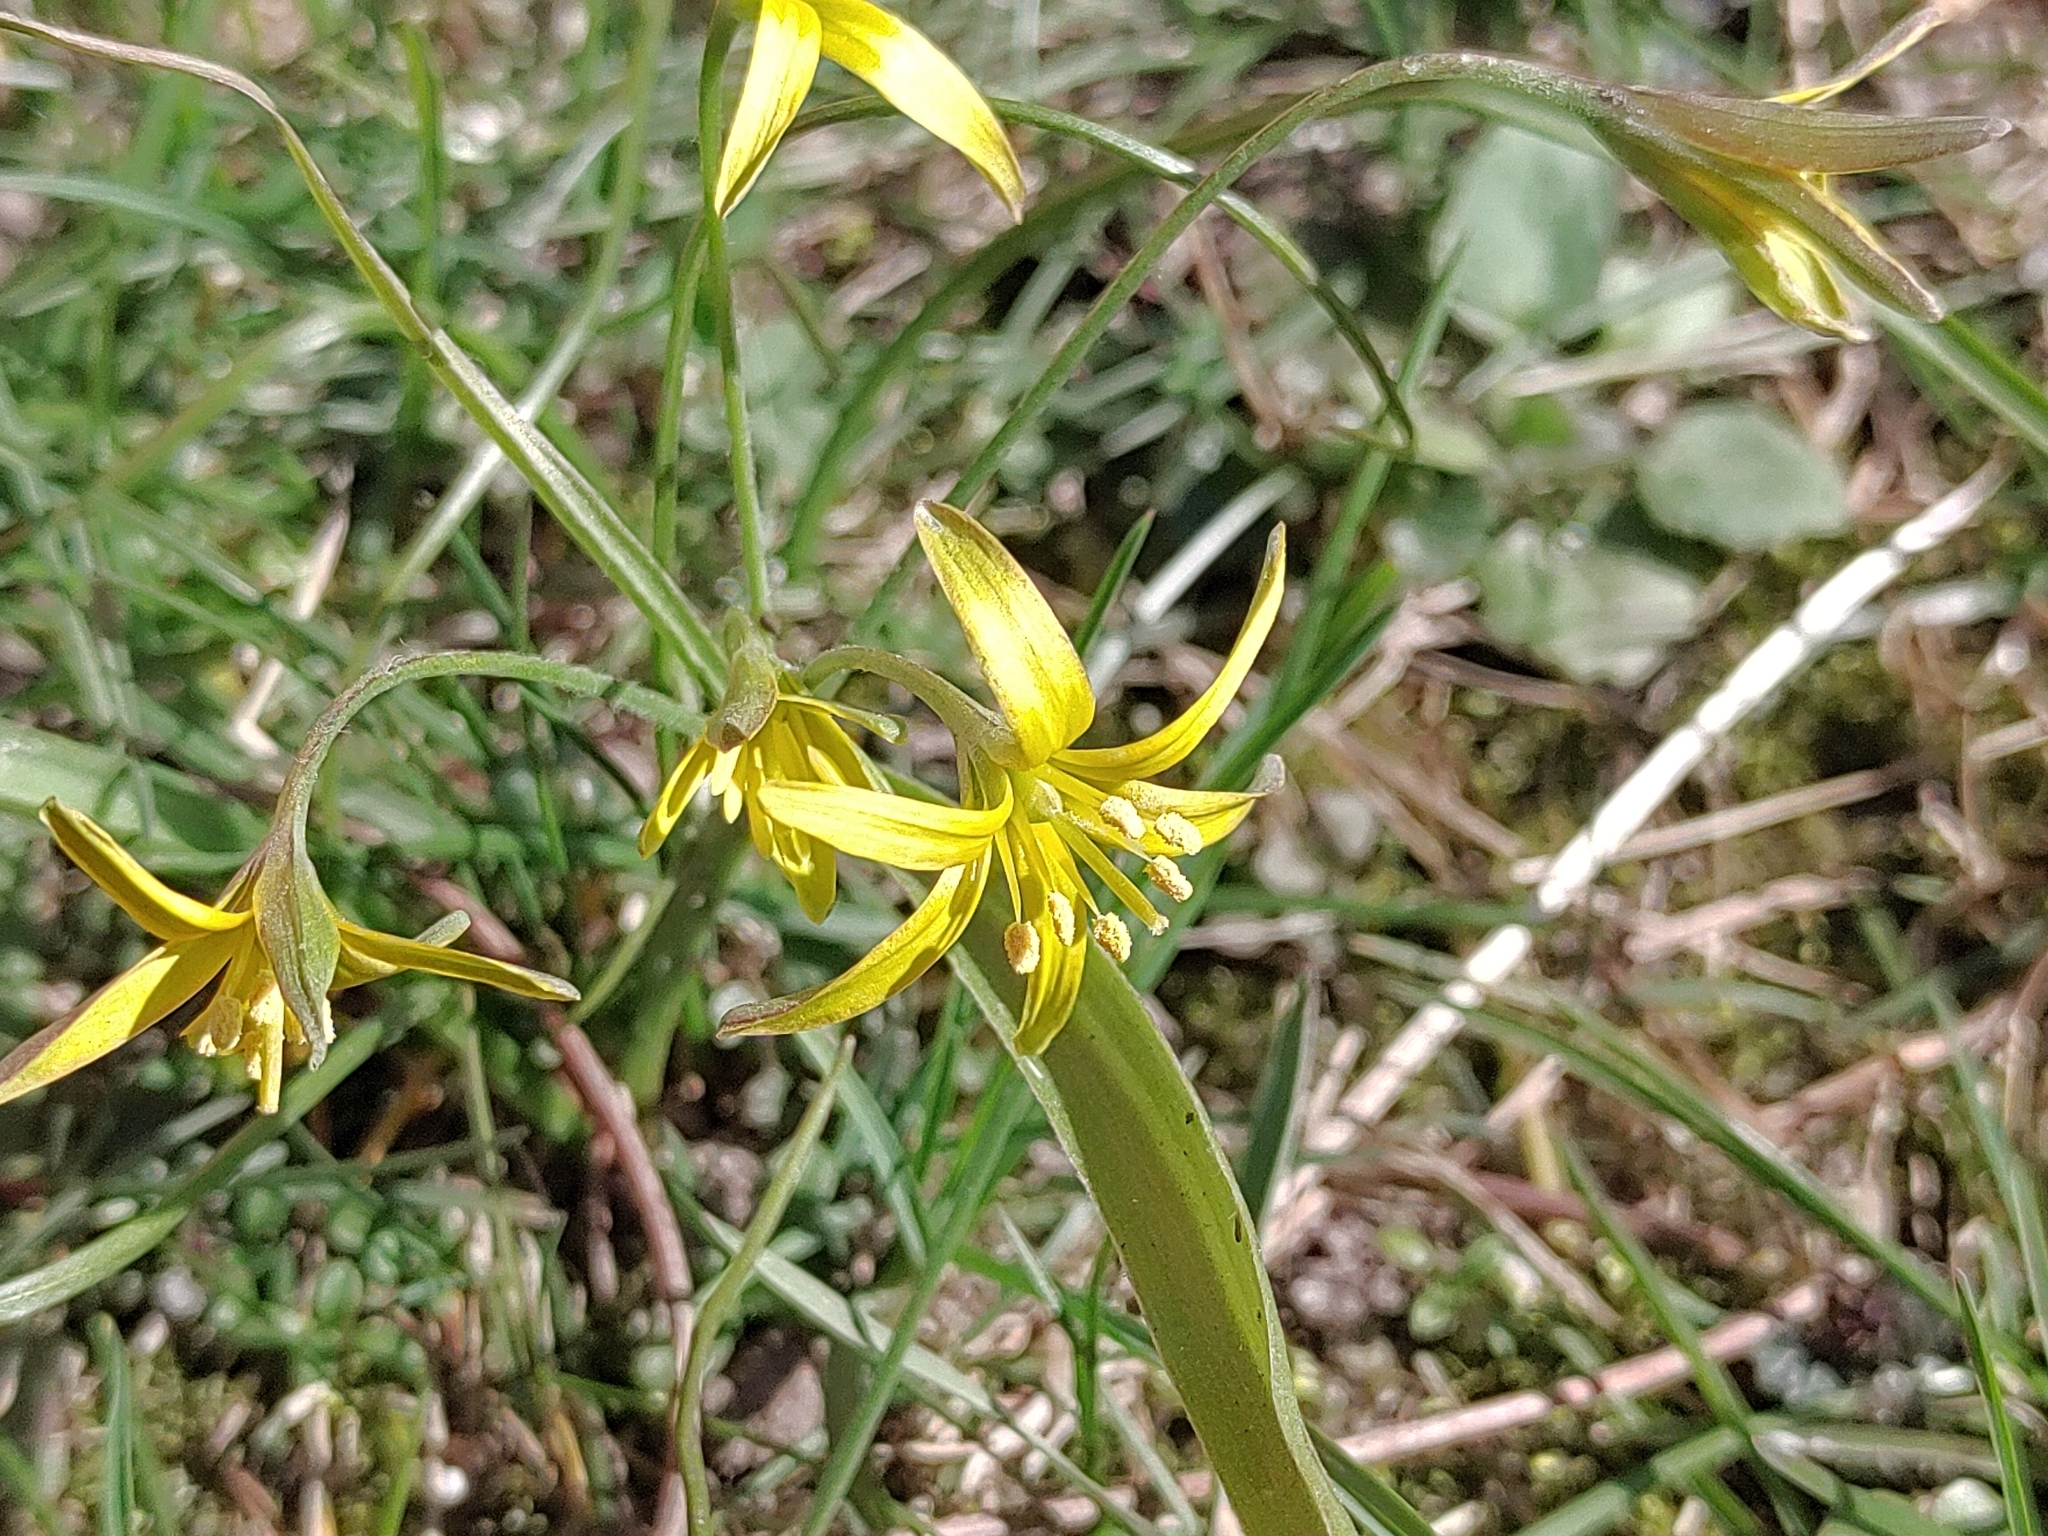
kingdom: Plantae
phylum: Tracheophyta
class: Liliopsida
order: Liliales
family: Liliaceae
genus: Gagea
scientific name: Gagea lutea
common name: Yellow star-of-bethlehem
